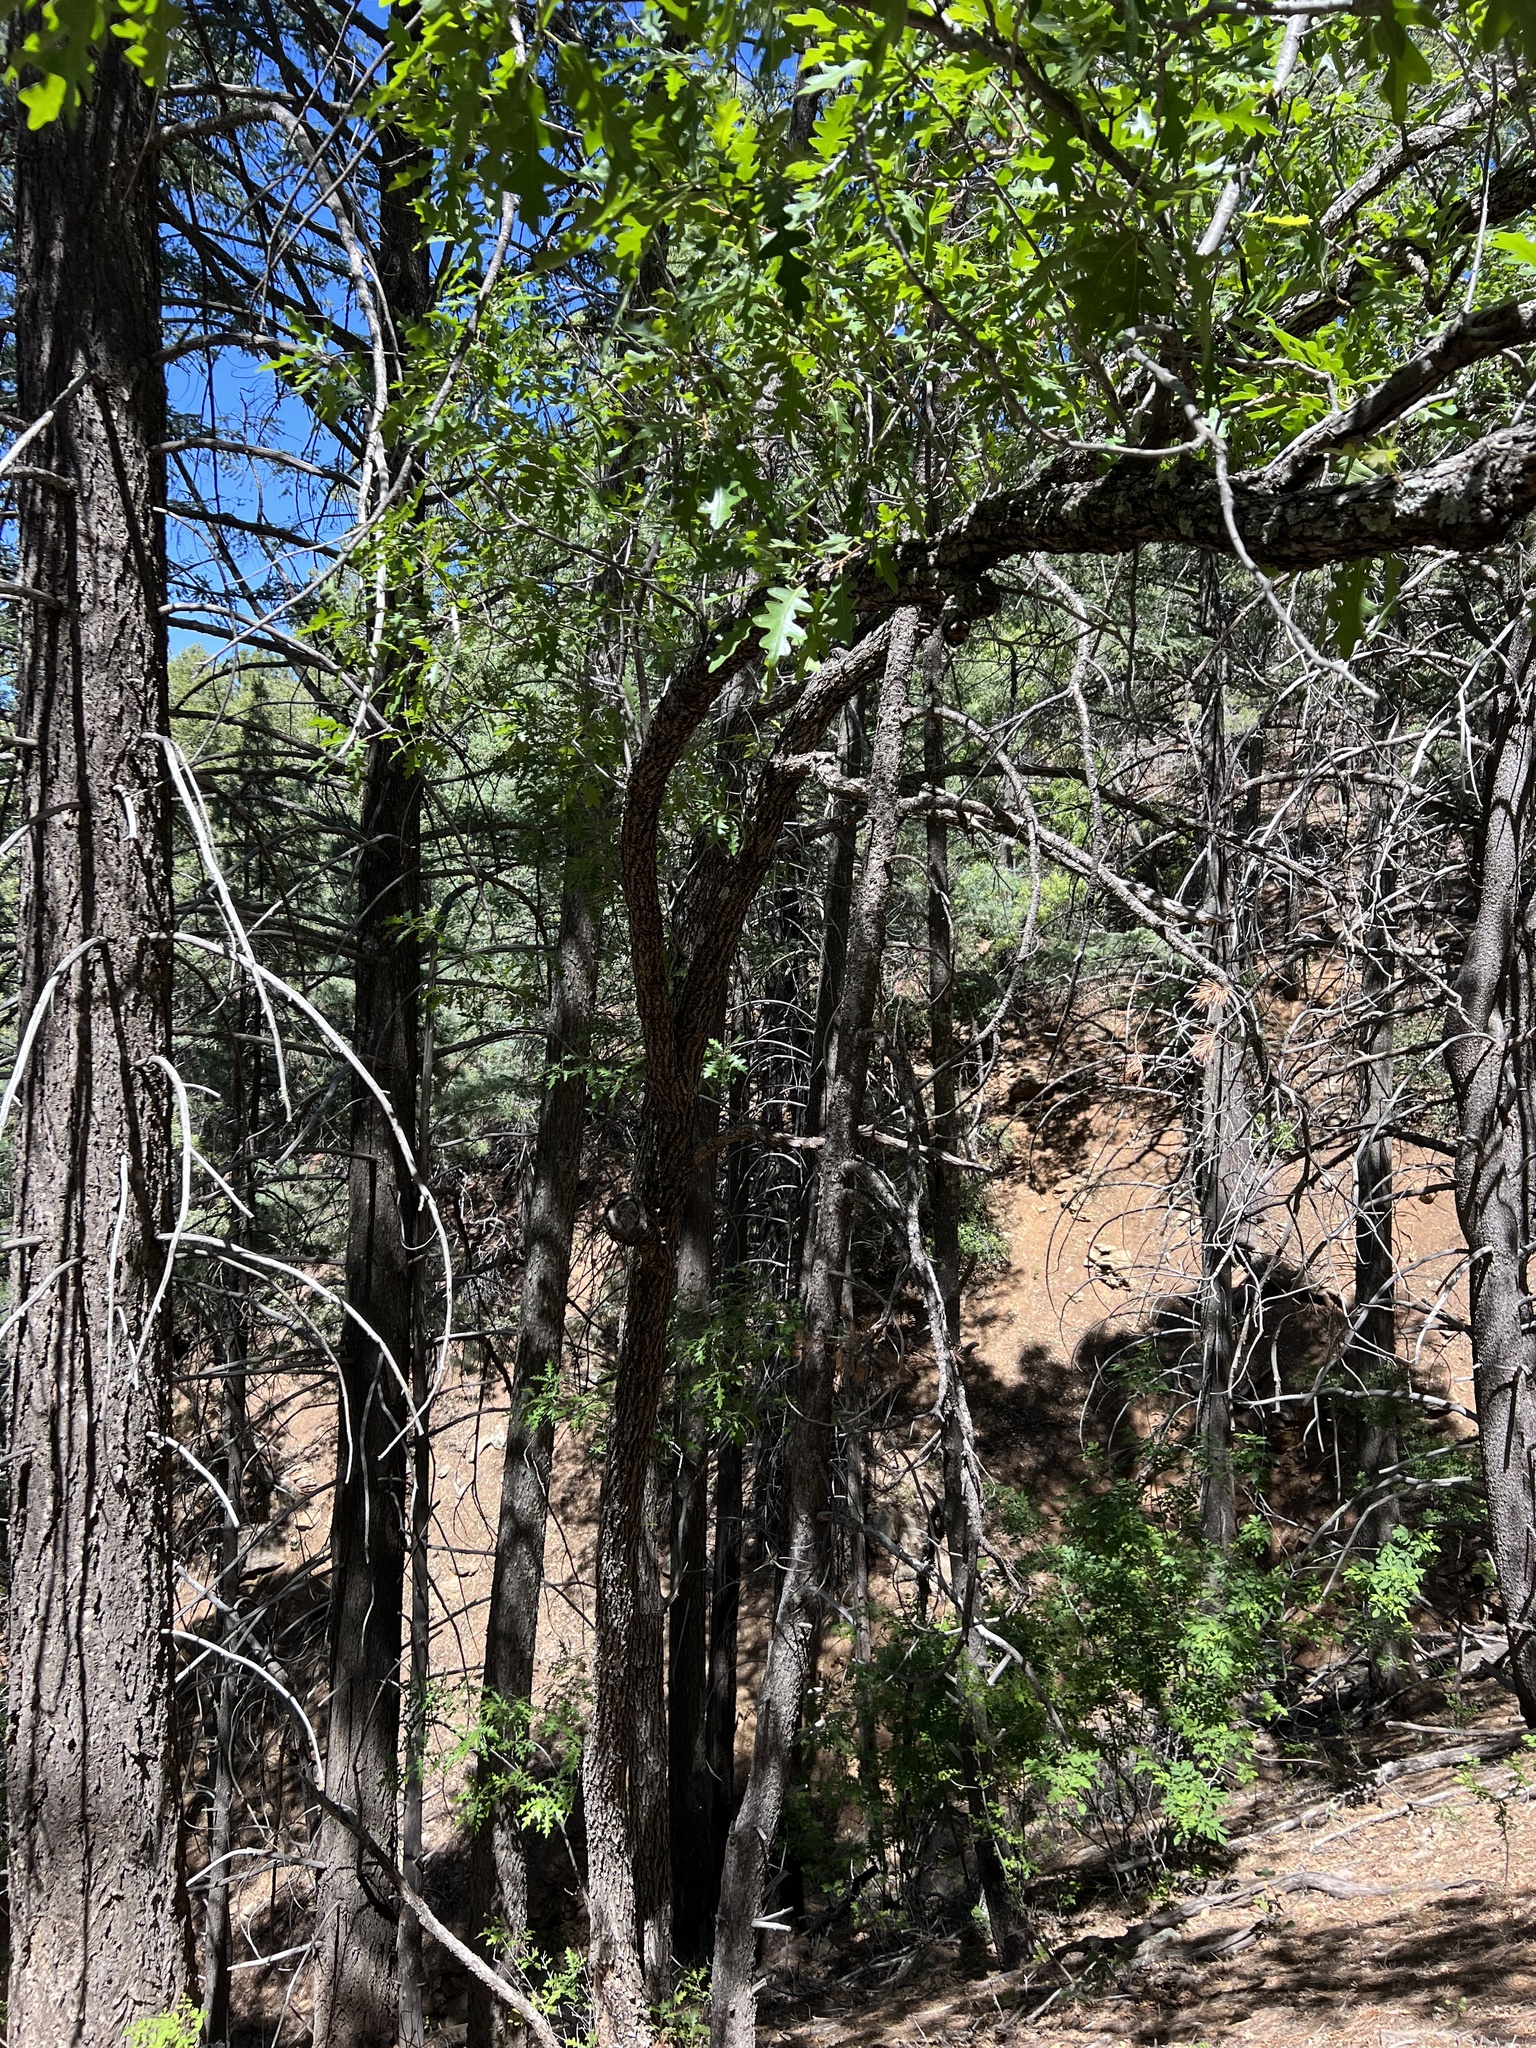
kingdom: Plantae
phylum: Tracheophyta
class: Magnoliopsida
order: Fagales
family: Fagaceae
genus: Quercus
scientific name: Quercus gambelii
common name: Gambel oak
